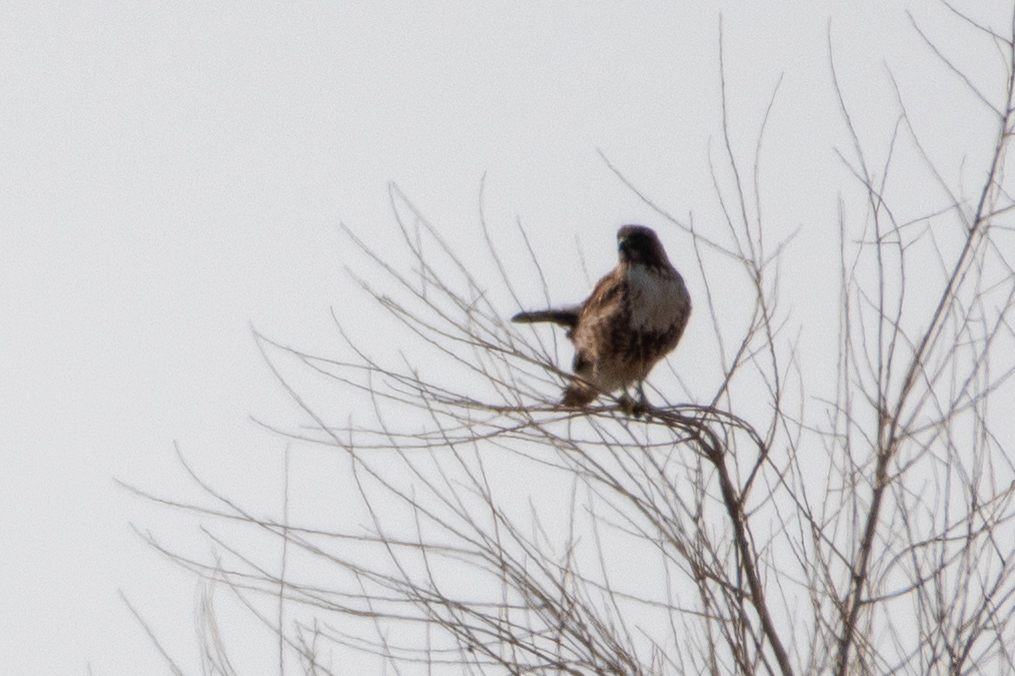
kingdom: Animalia
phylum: Chordata
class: Aves
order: Accipitriformes
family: Accipitridae
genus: Buteo
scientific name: Buteo jamaicensis
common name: Red-tailed hawk
